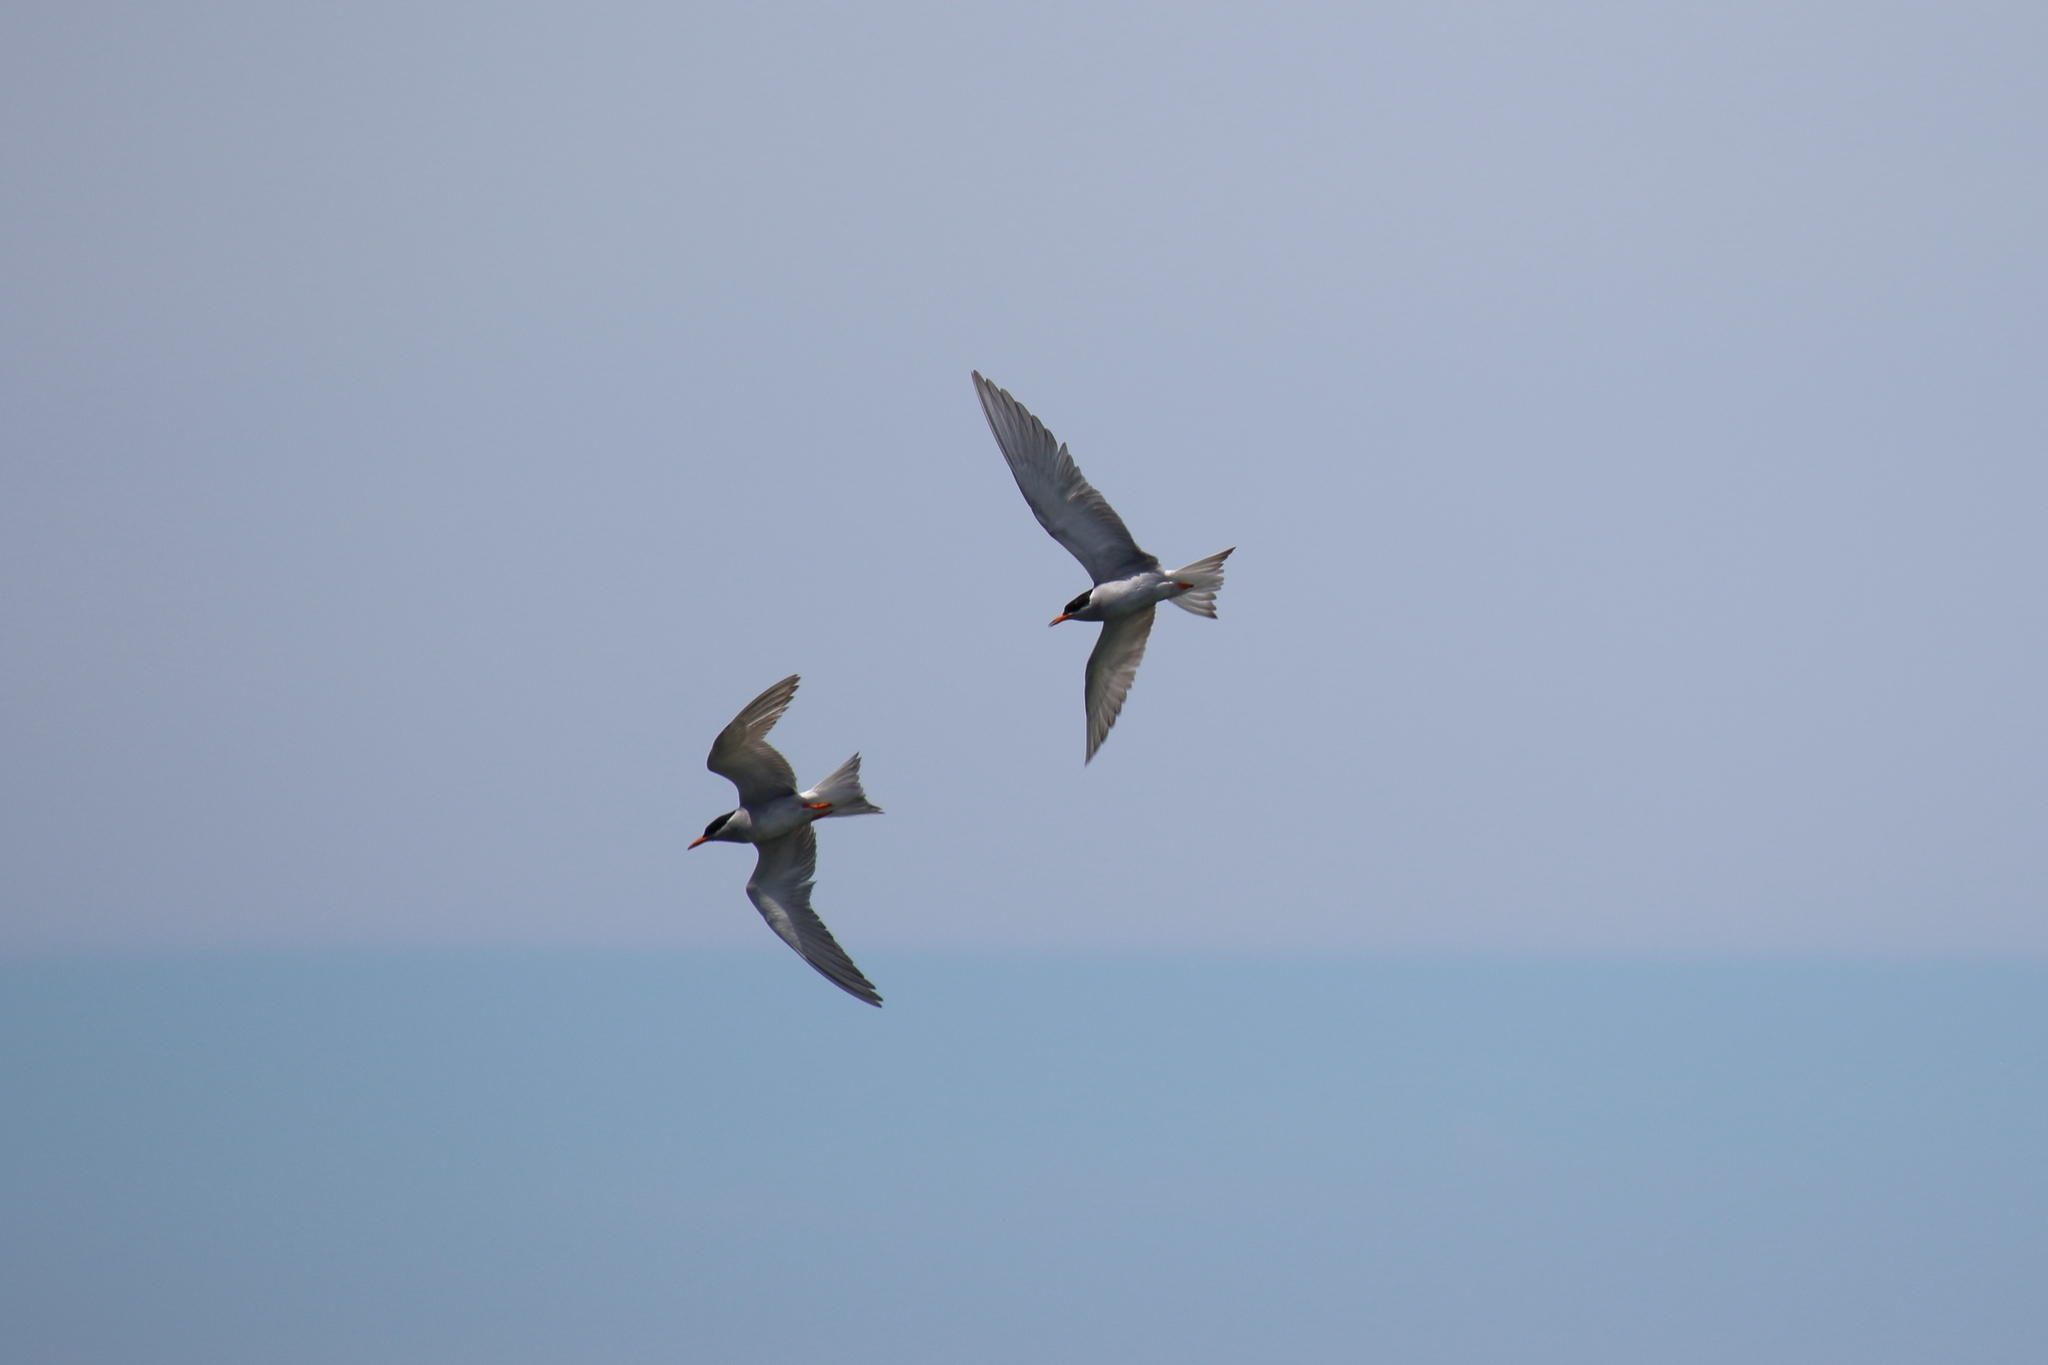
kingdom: Animalia
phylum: Chordata
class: Aves
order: Charadriiformes
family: Laridae
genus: Chlidonias
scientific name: Chlidonias albostriatus
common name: Black-fronted tern
